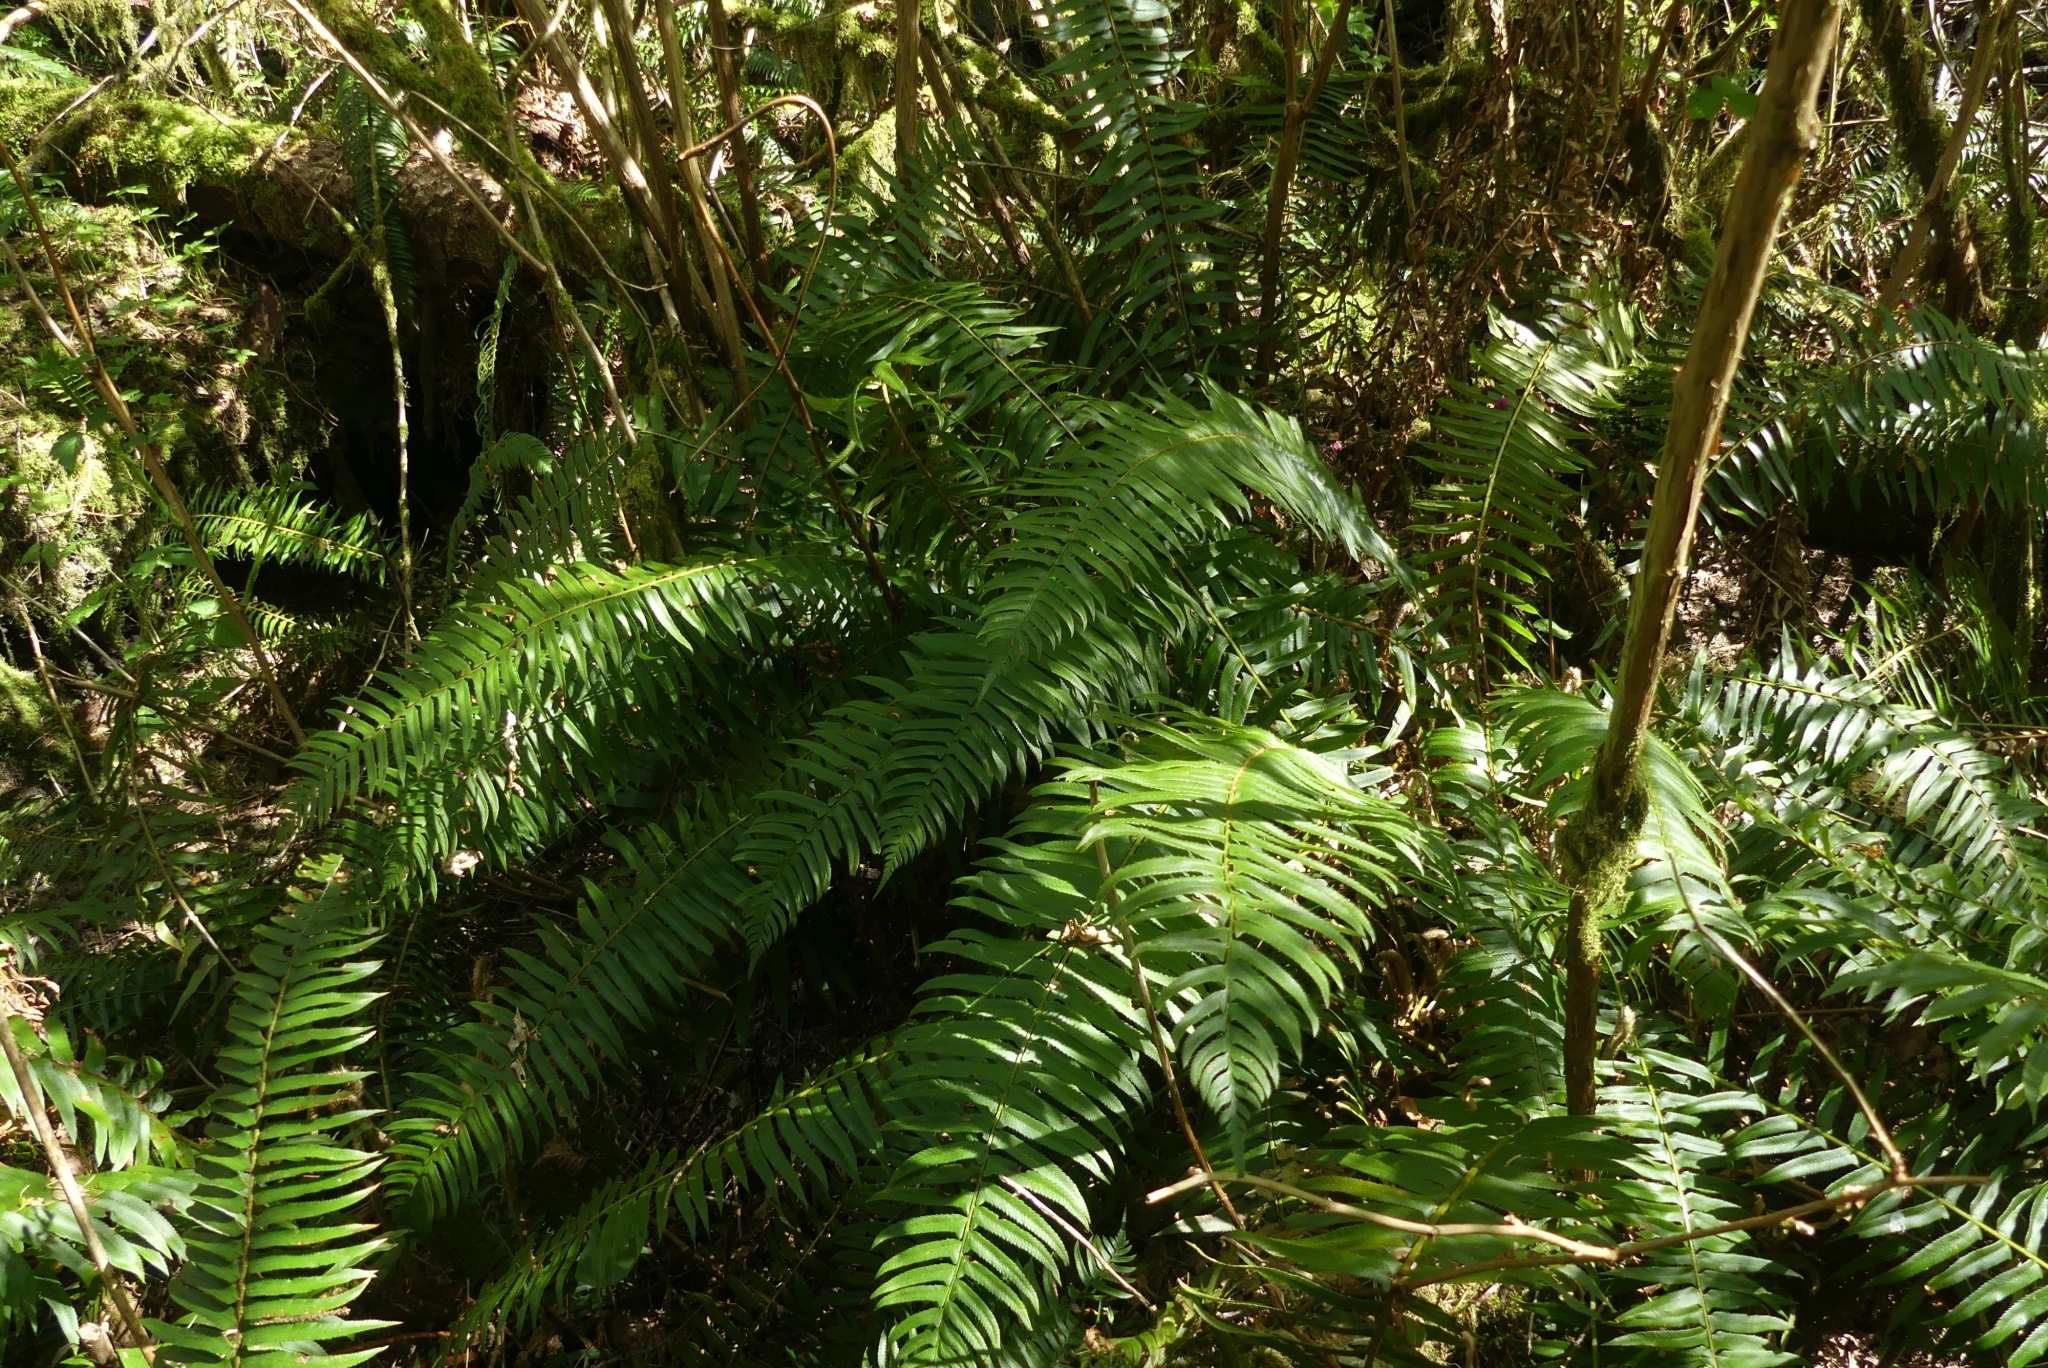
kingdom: Plantae
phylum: Tracheophyta
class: Polypodiopsida
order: Polypodiales
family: Dryopteridaceae
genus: Polystichum
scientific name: Polystichum munitum
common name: Western sword-fern
